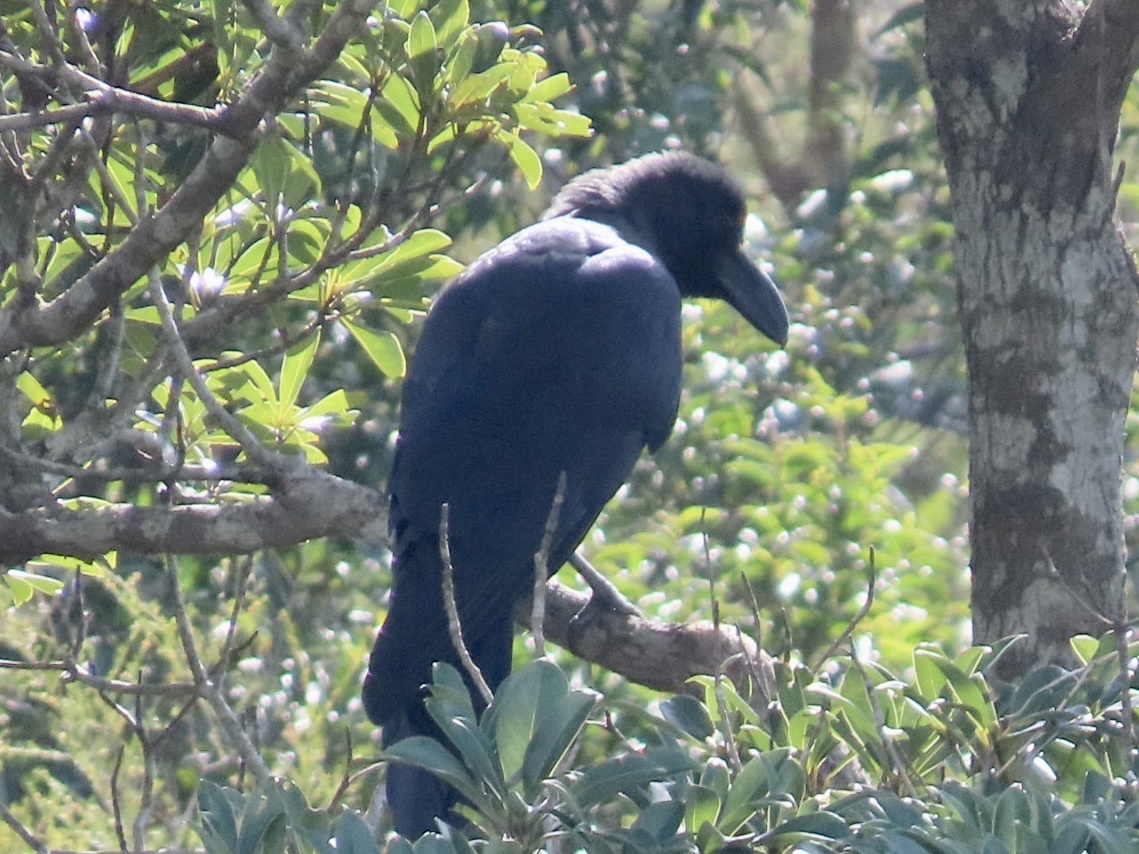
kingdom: Animalia
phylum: Chordata
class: Aves
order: Passeriformes
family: Corvidae
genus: Corvus
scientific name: Corvus macrorhynchos
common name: Large-billed crow
